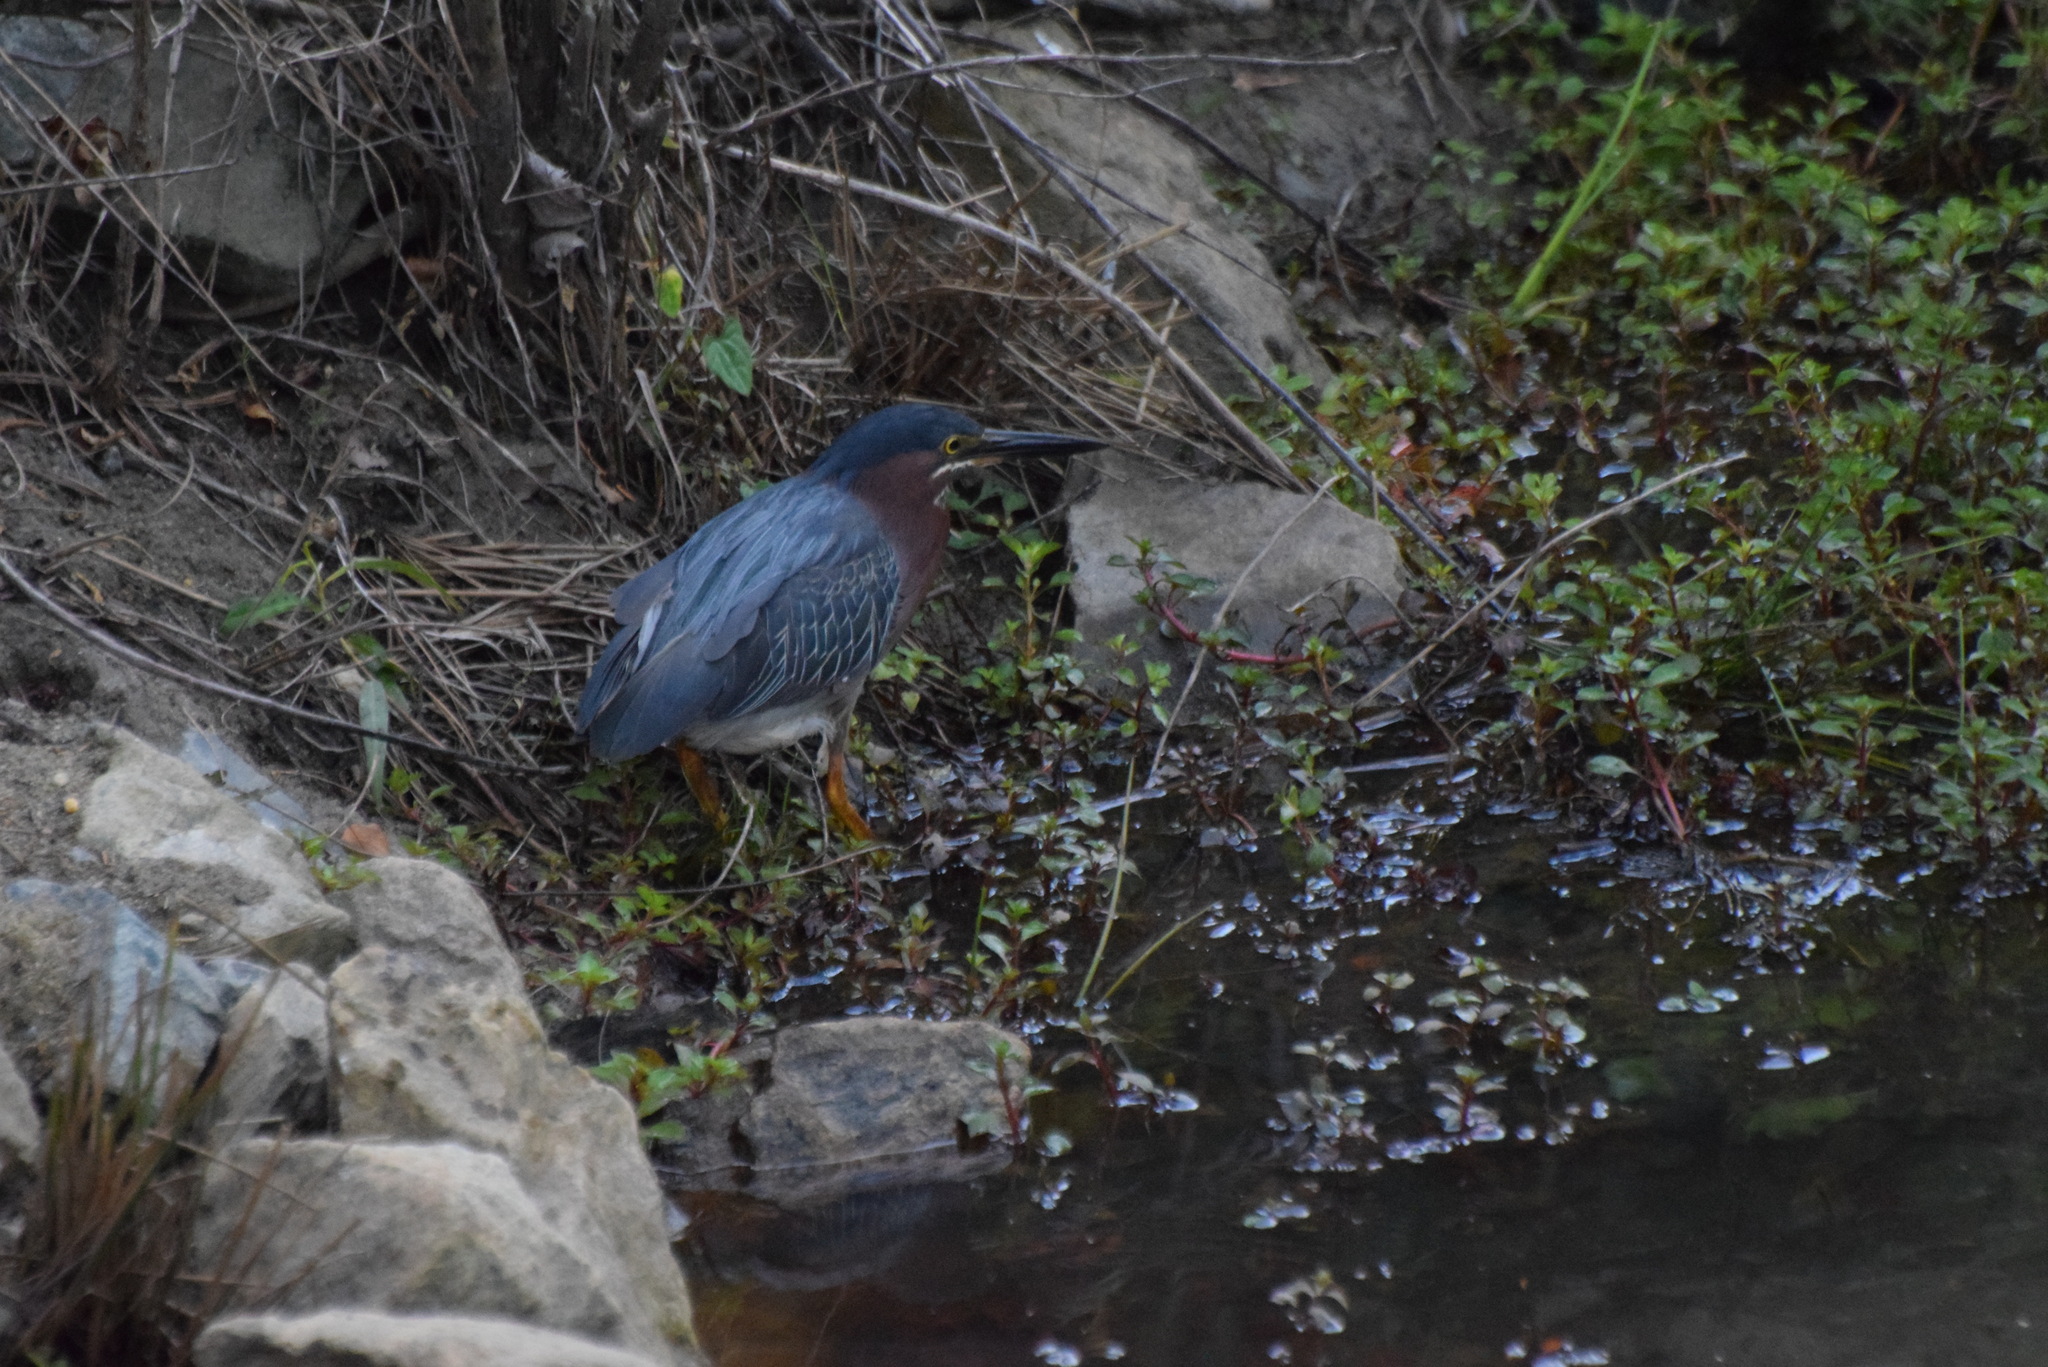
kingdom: Animalia
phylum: Chordata
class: Aves
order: Pelecaniformes
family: Ardeidae
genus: Butorides
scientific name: Butorides virescens
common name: Green heron
